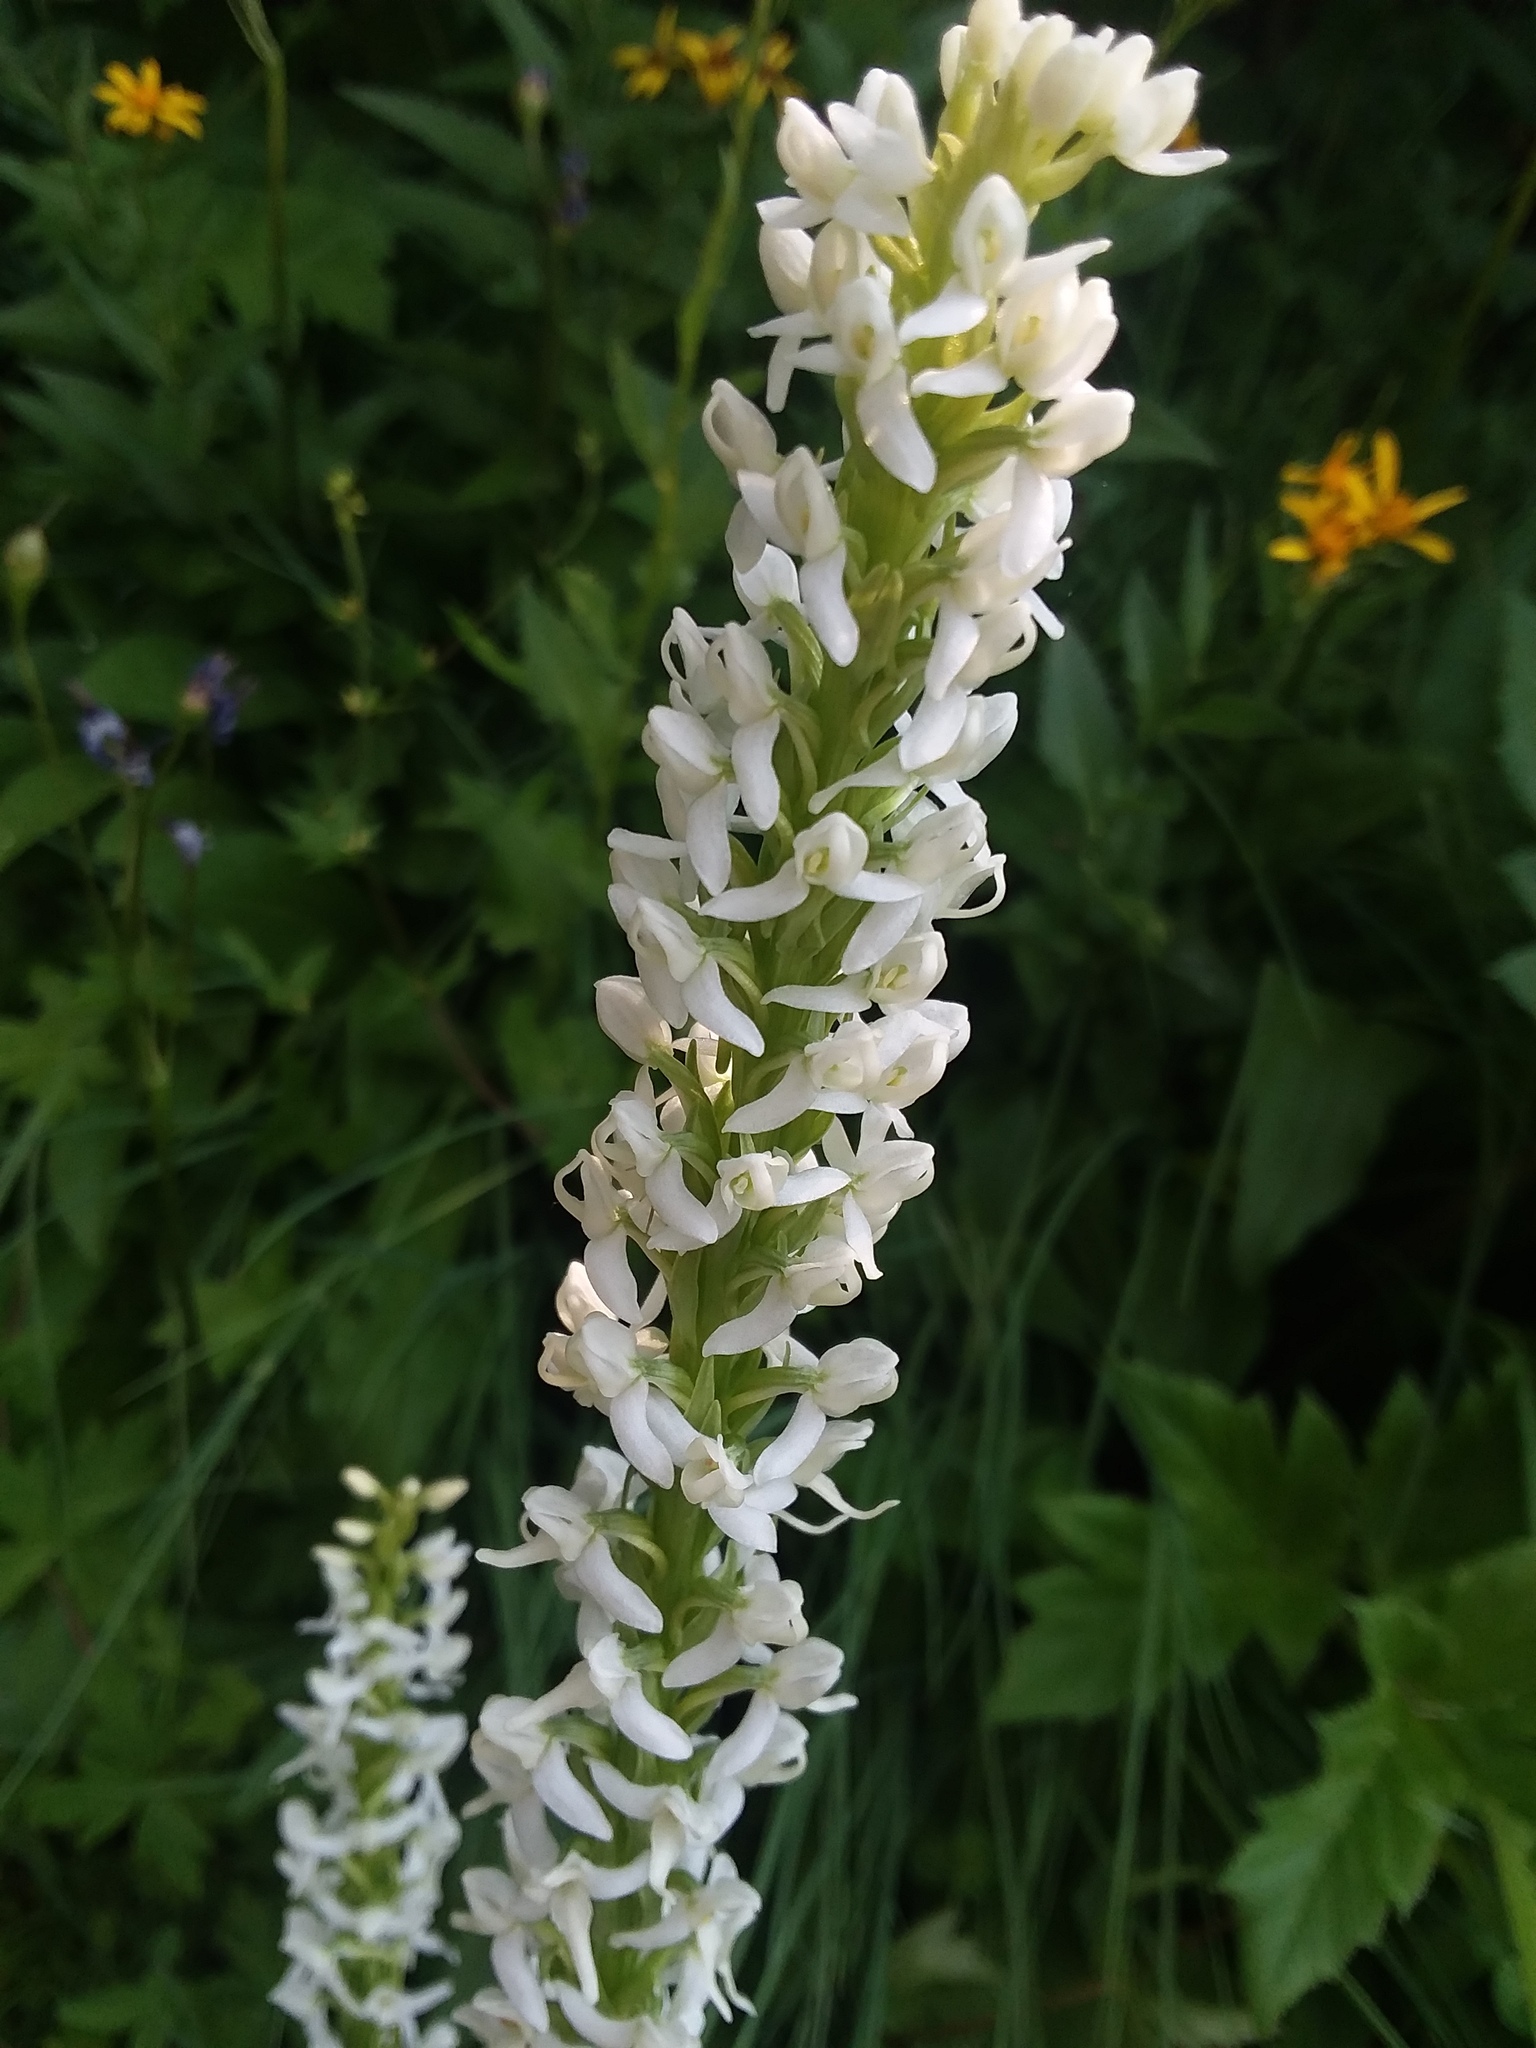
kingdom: Plantae
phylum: Tracheophyta
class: Liliopsida
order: Asparagales
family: Orchidaceae
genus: Platanthera
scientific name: Platanthera dilatata
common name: Bog candles
